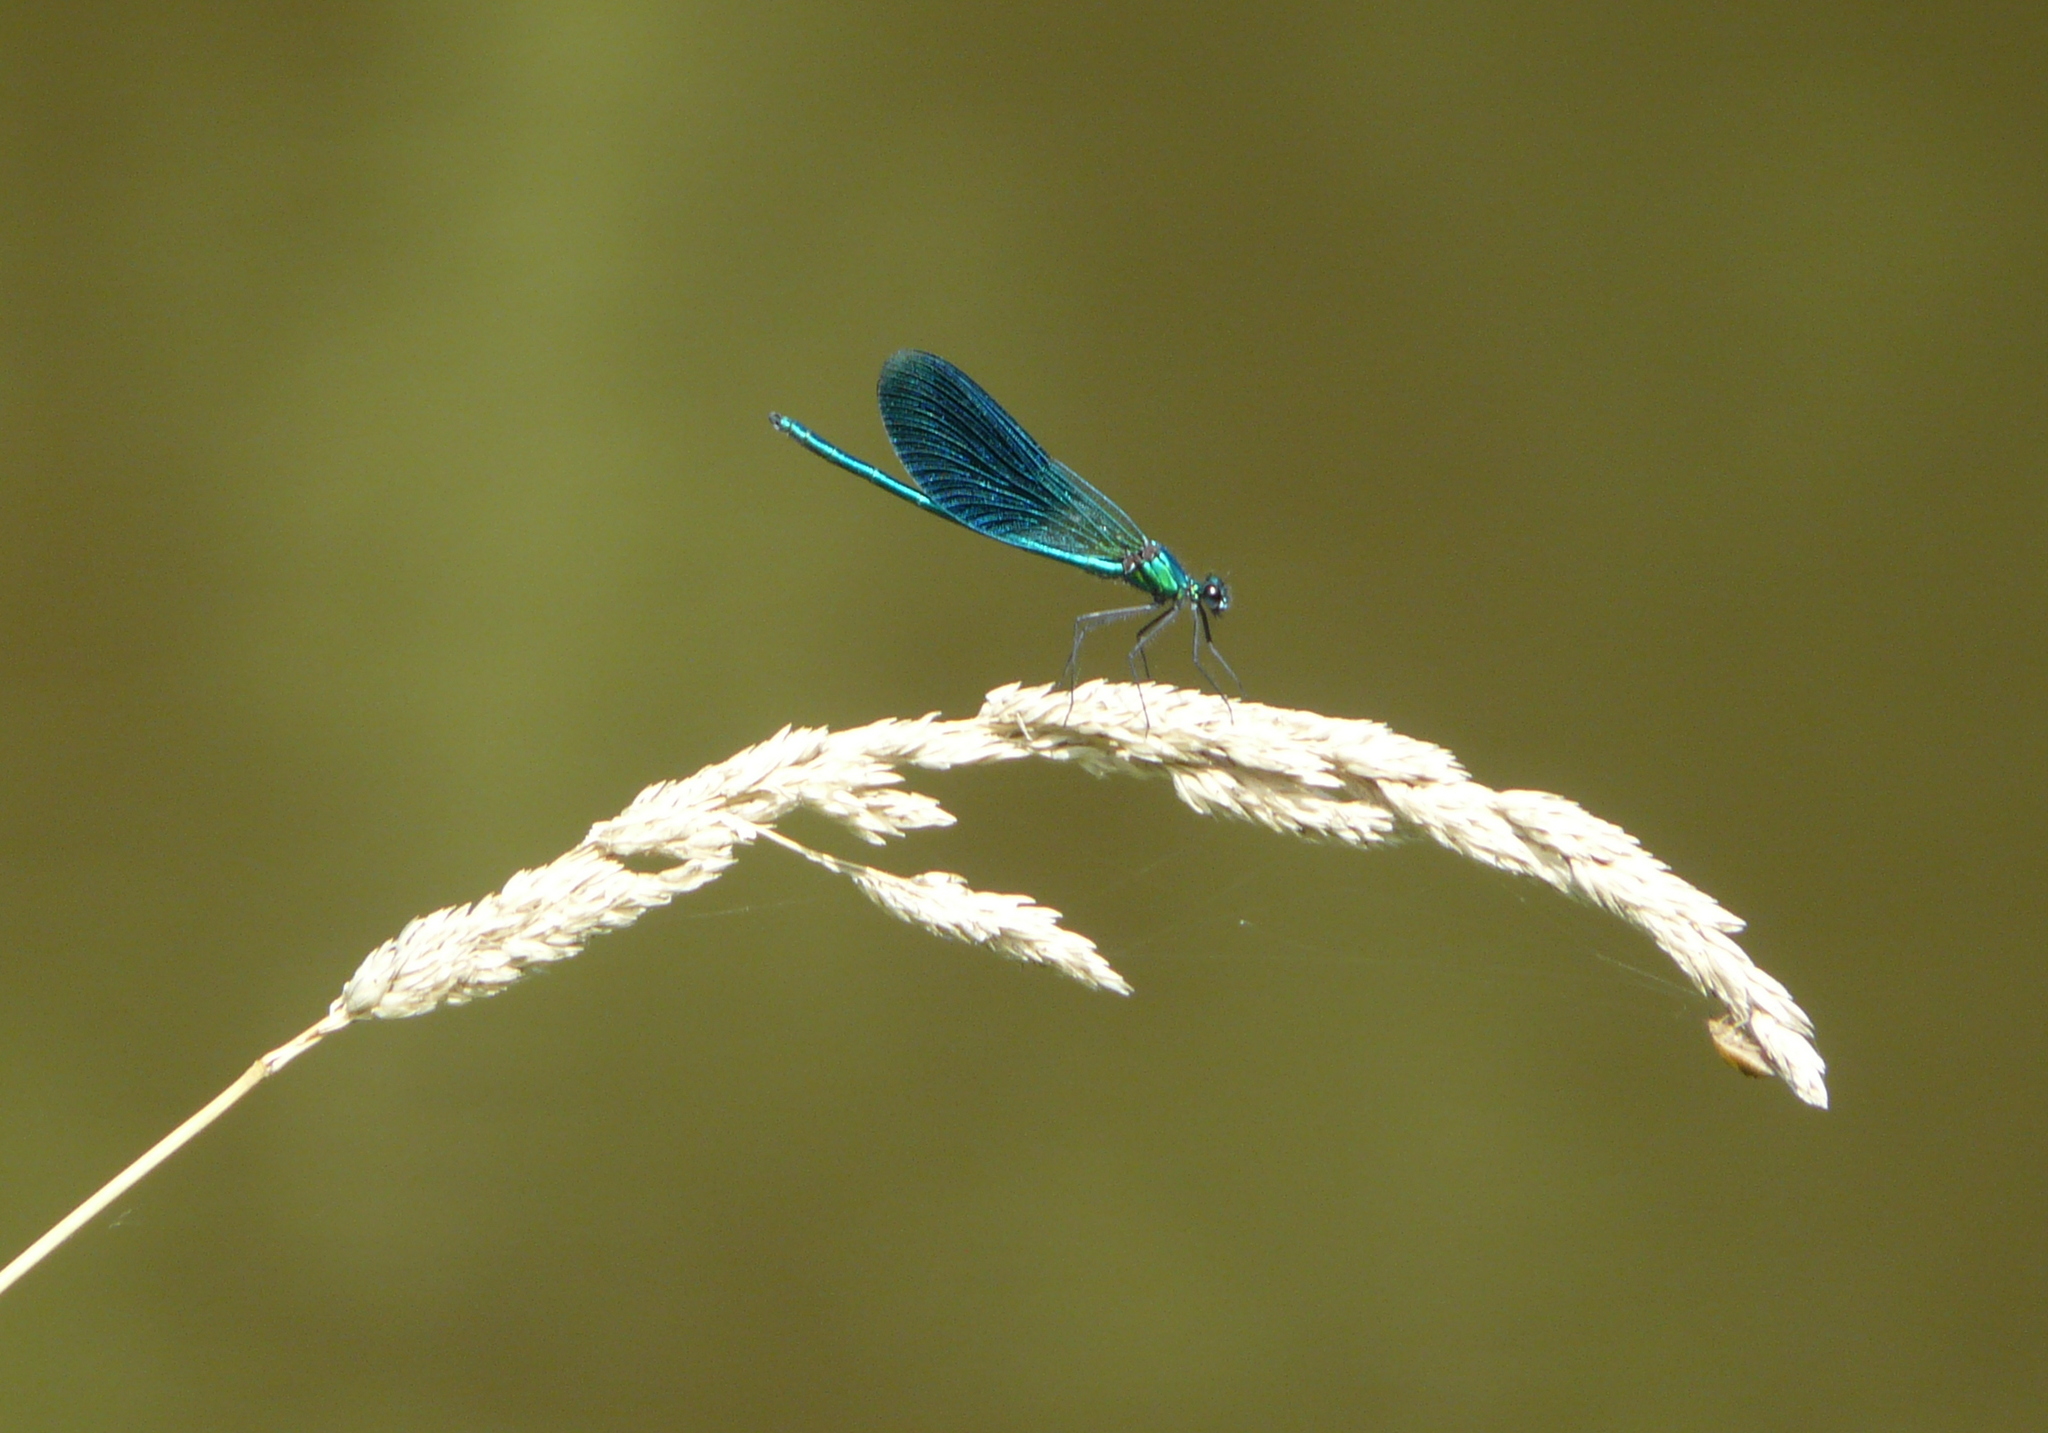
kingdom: Animalia
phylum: Arthropoda
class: Insecta
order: Odonata
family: Calopterygidae
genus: Calopteryx
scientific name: Calopteryx splendens
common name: Banded demoiselle
